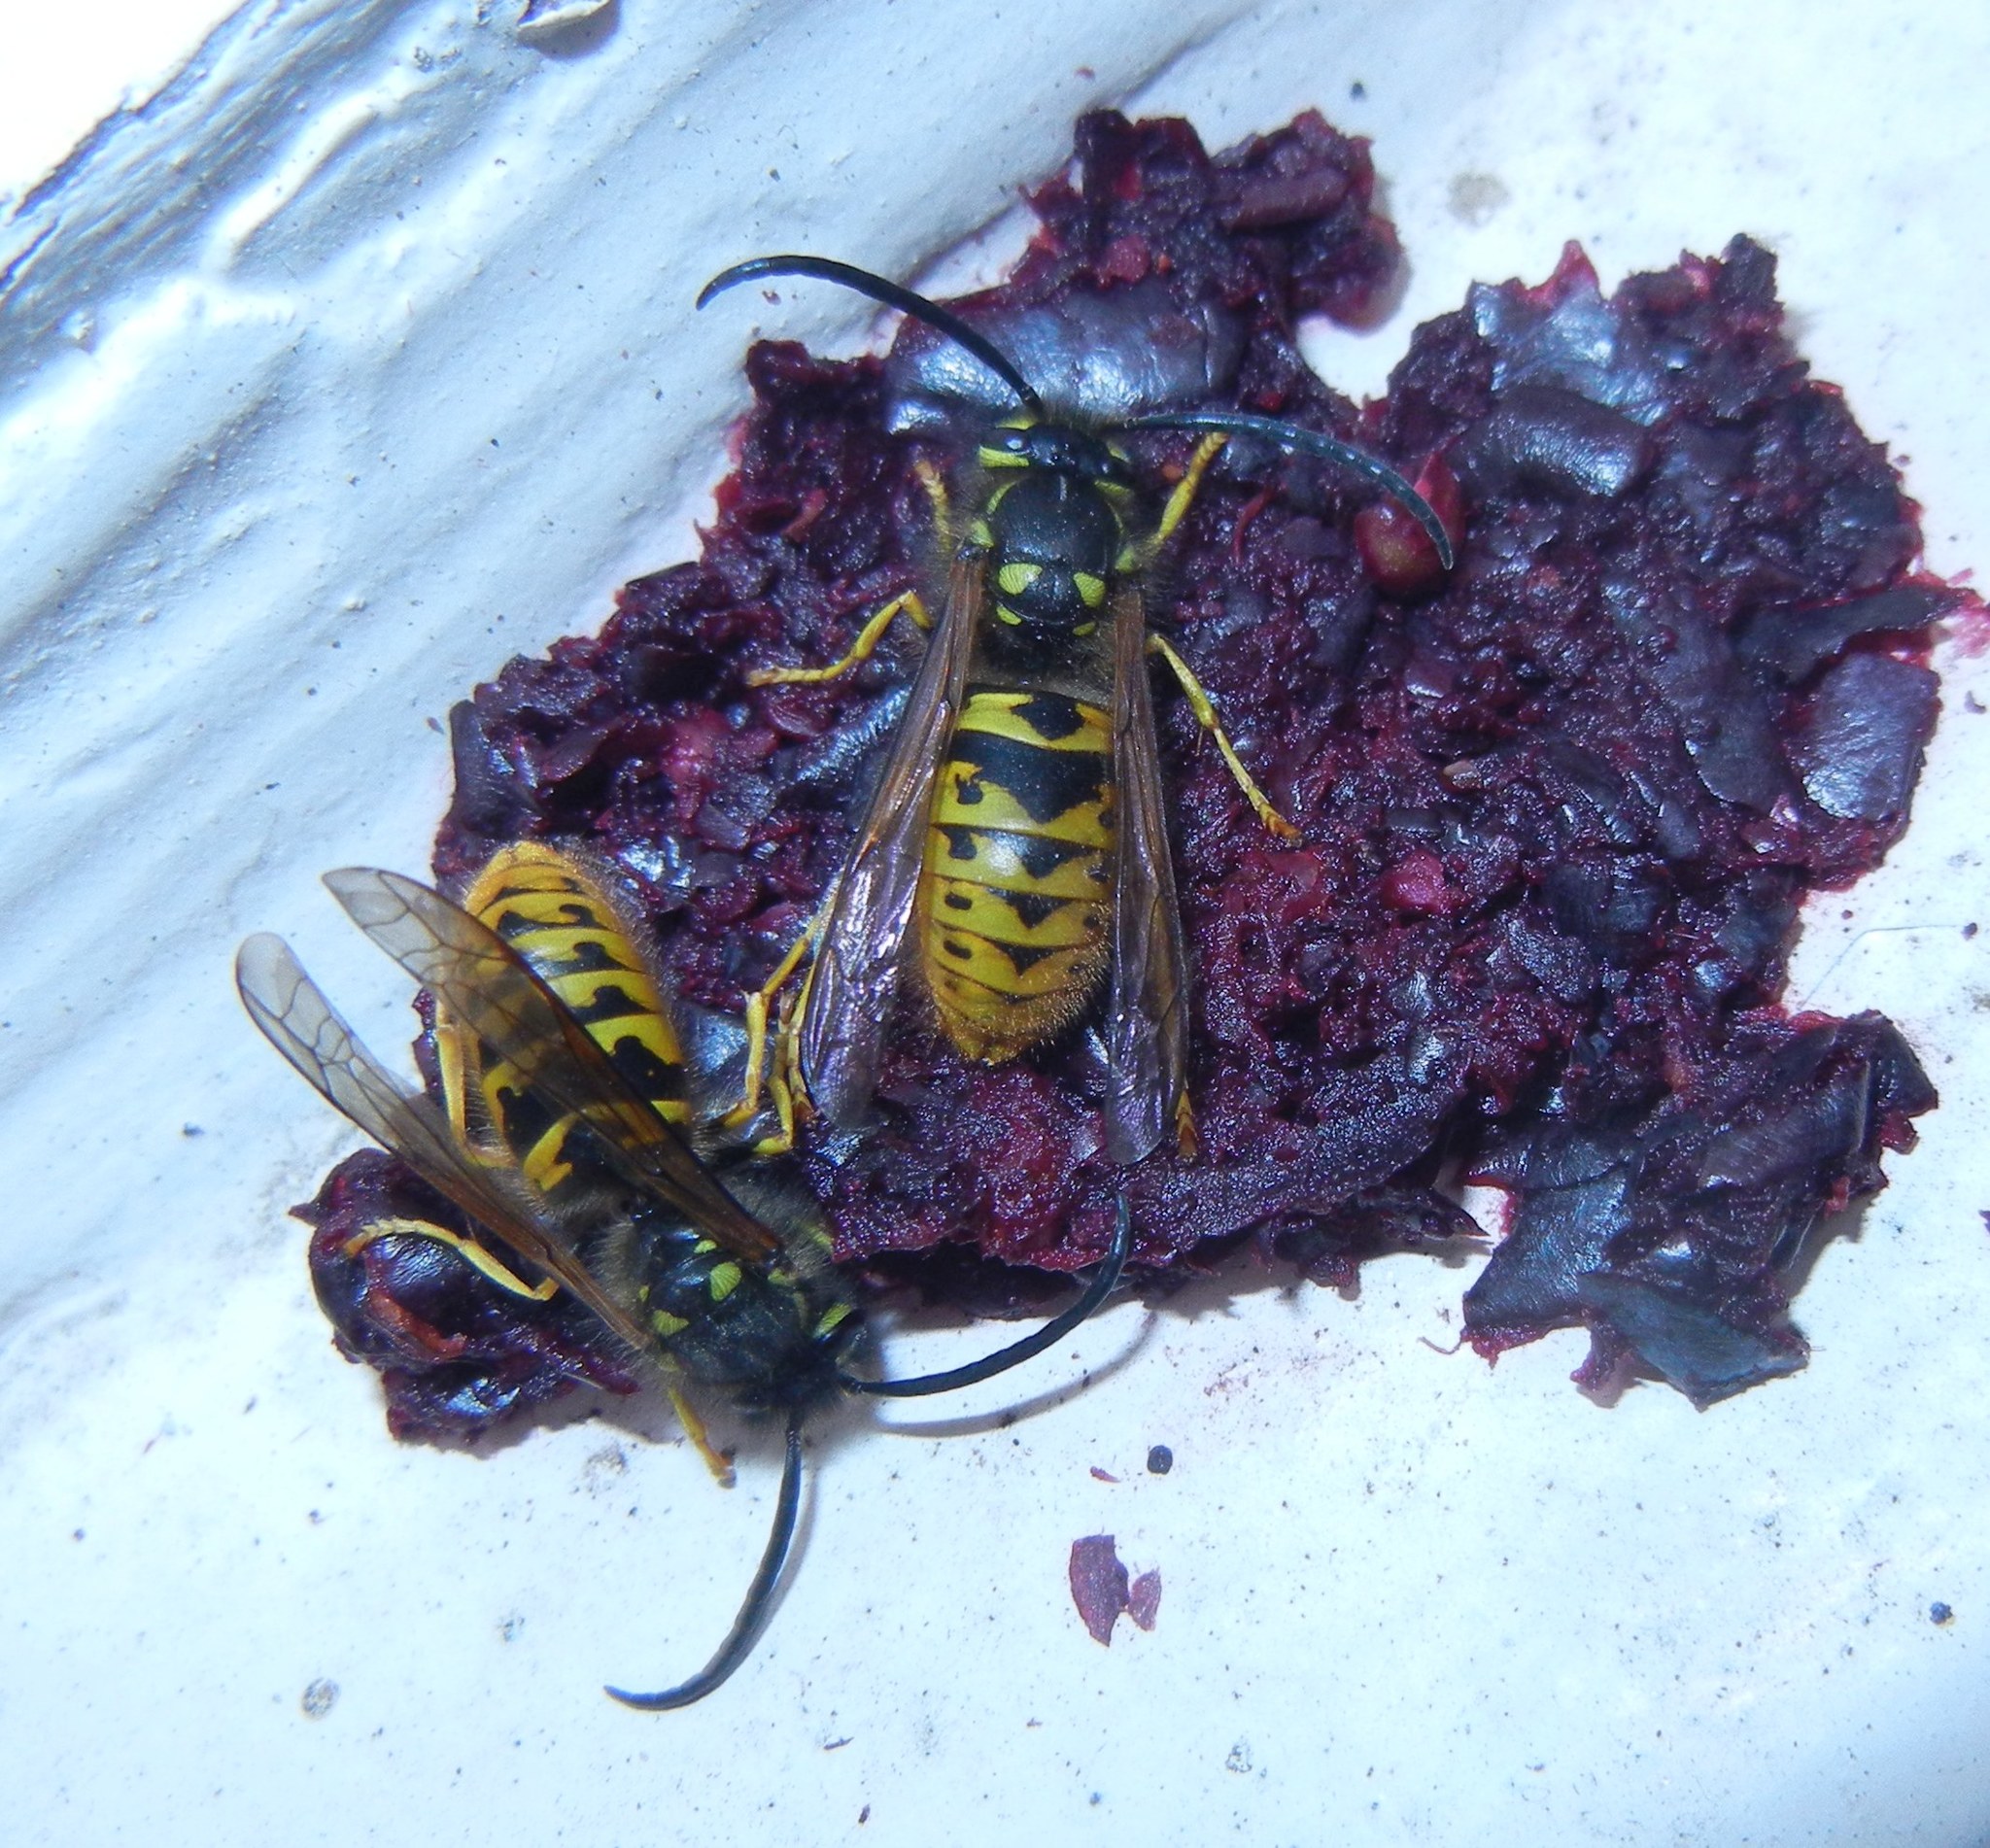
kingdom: Animalia
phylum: Arthropoda
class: Insecta
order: Hymenoptera
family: Vespidae
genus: Vespula
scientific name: Vespula germanica
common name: German wasp
